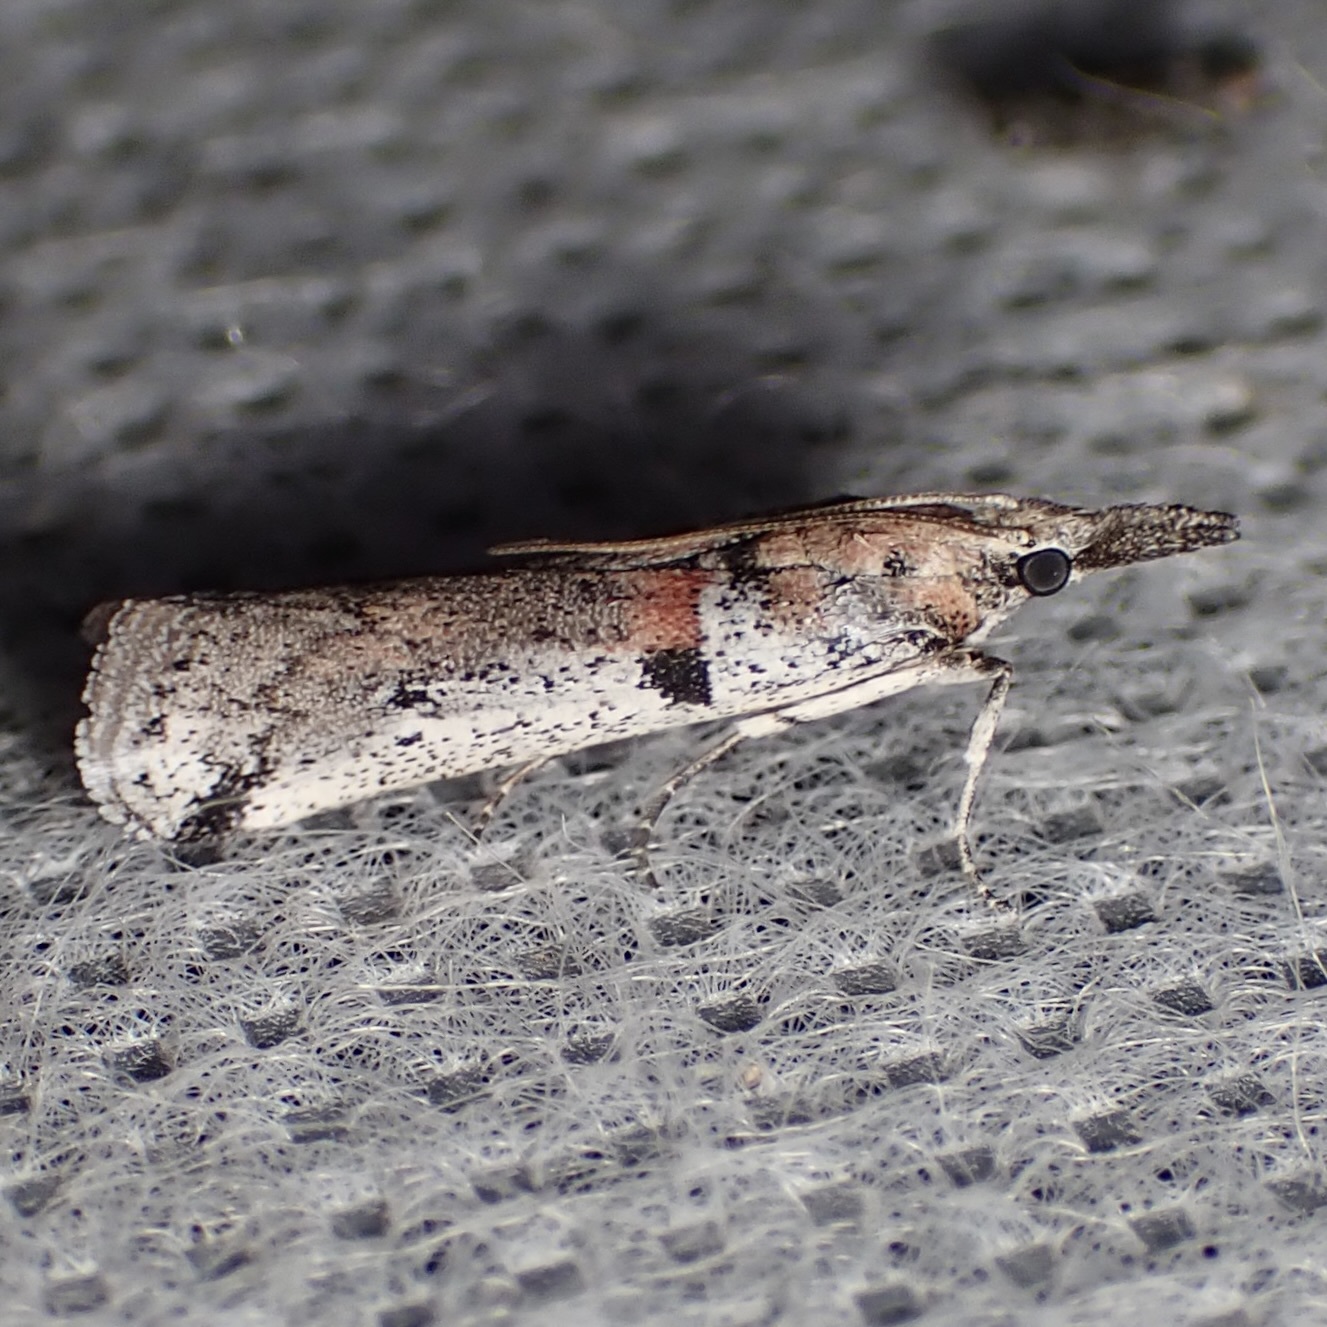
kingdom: Animalia
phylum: Arthropoda
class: Insecta
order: Lepidoptera
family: Pyralidae
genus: Rostrolaetilia
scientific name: Rostrolaetilia nigromaculella
